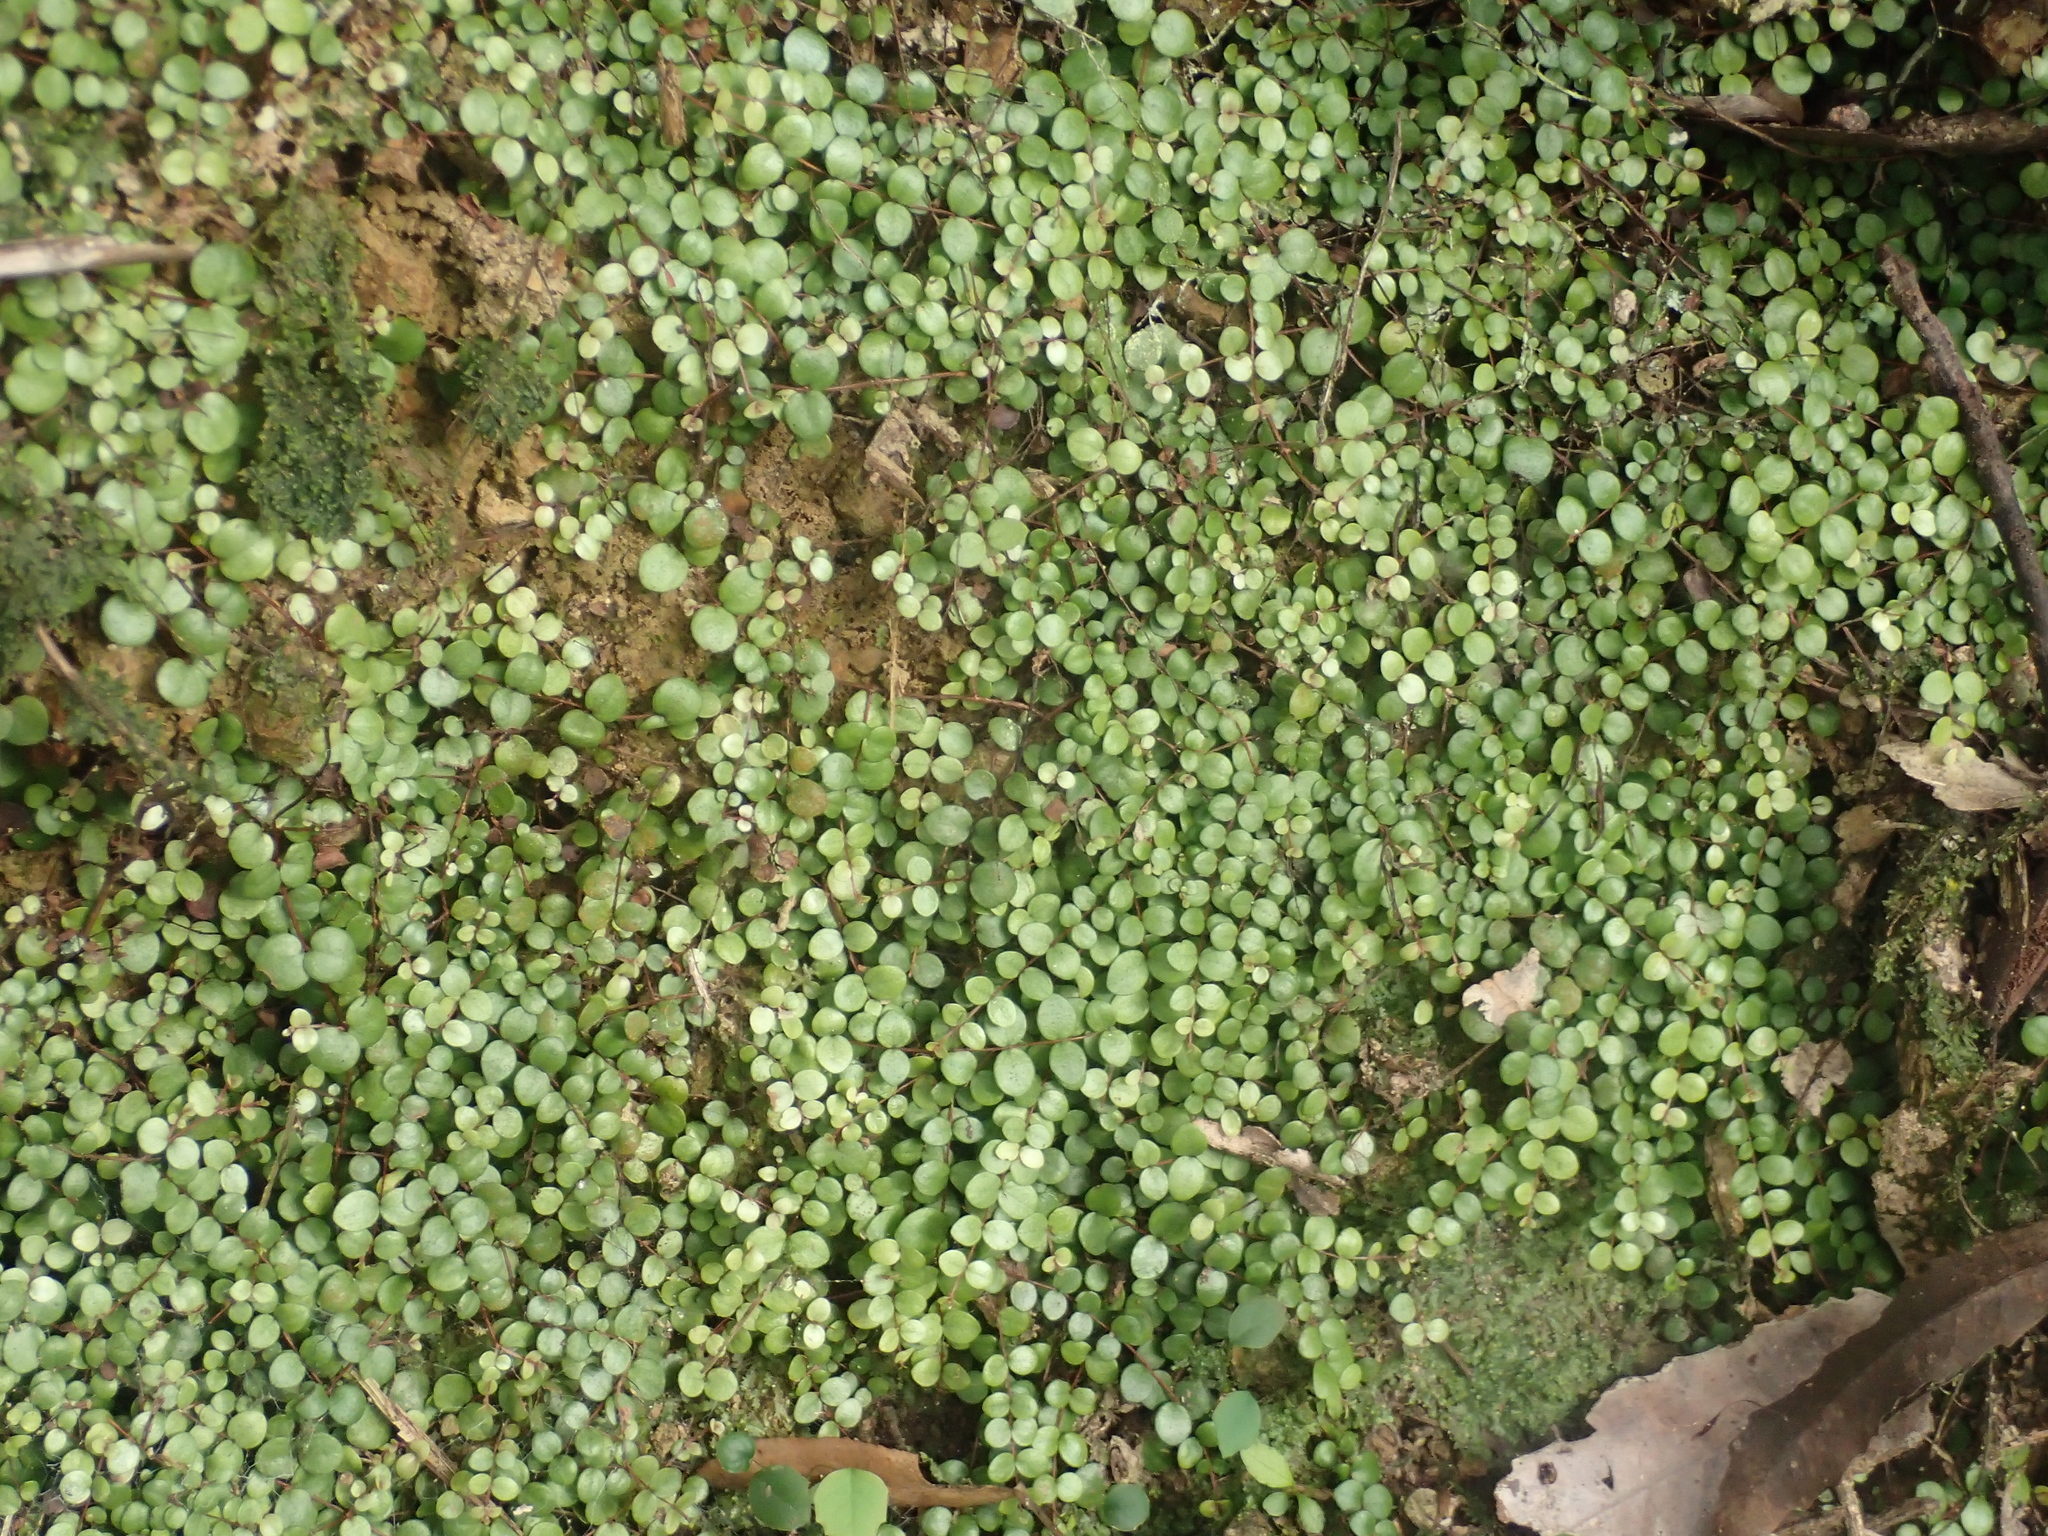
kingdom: Plantae
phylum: Tracheophyta
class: Magnoliopsida
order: Myrtales
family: Myrtaceae
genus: Metrosideros
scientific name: Metrosideros perforata
